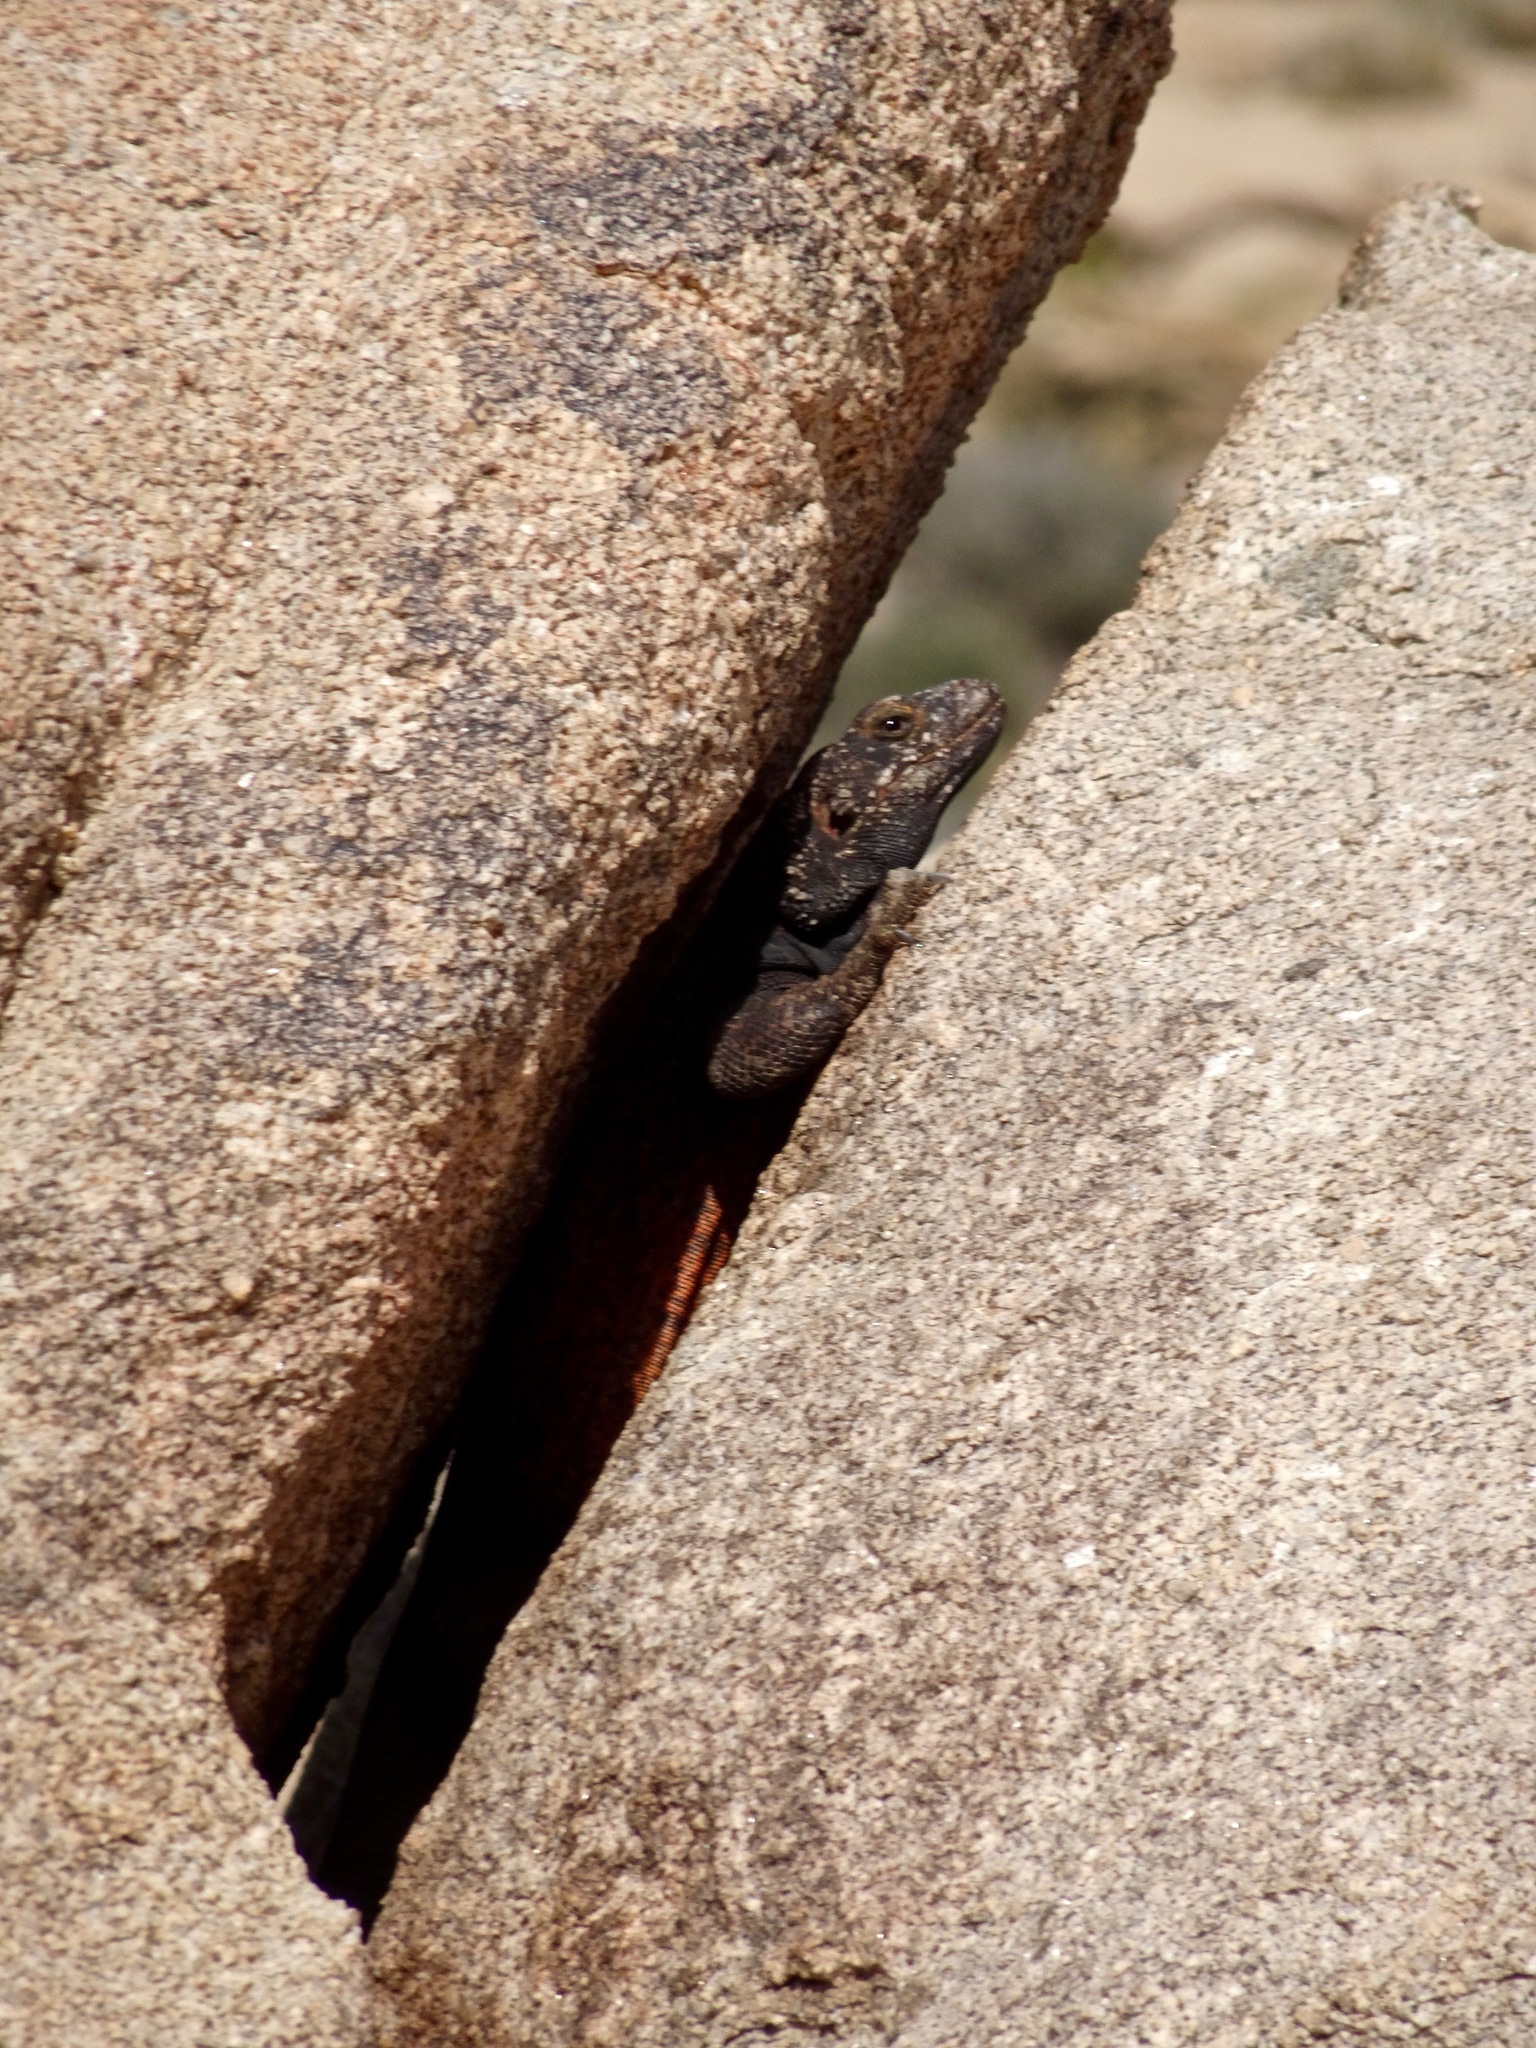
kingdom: Animalia
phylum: Chordata
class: Squamata
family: Iguanidae
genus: Sauromalus
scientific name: Sauromalus ater
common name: Northern chuckwalla
